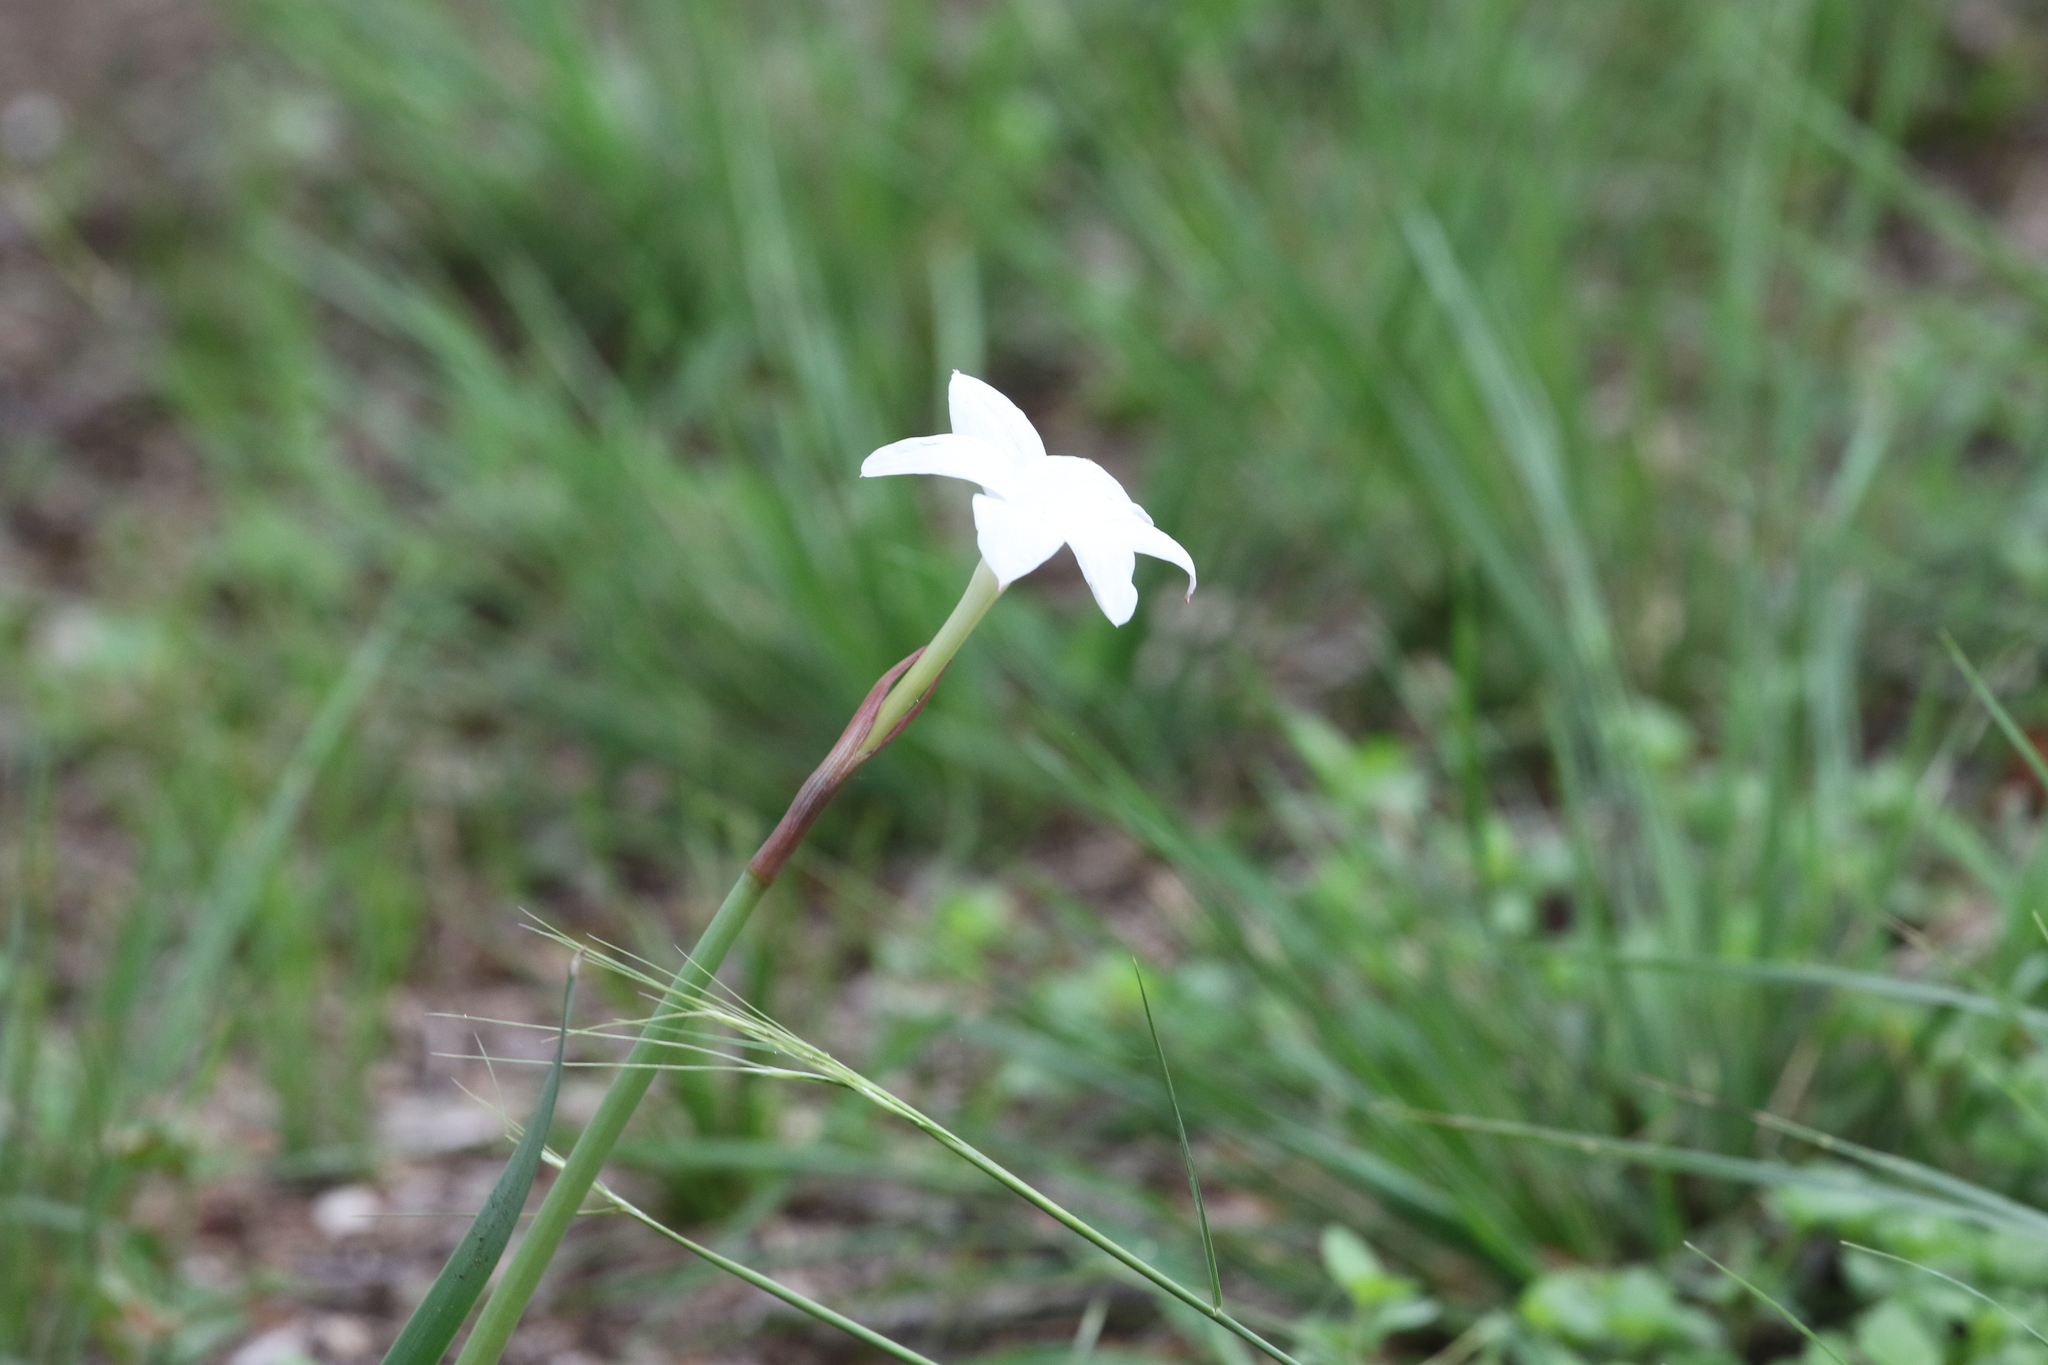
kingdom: Plantae
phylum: Tracheophyta
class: Liliopsida
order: Asparagales
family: Amaryllidaceae
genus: Zephyranthes
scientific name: Zephyranthes drummondii
